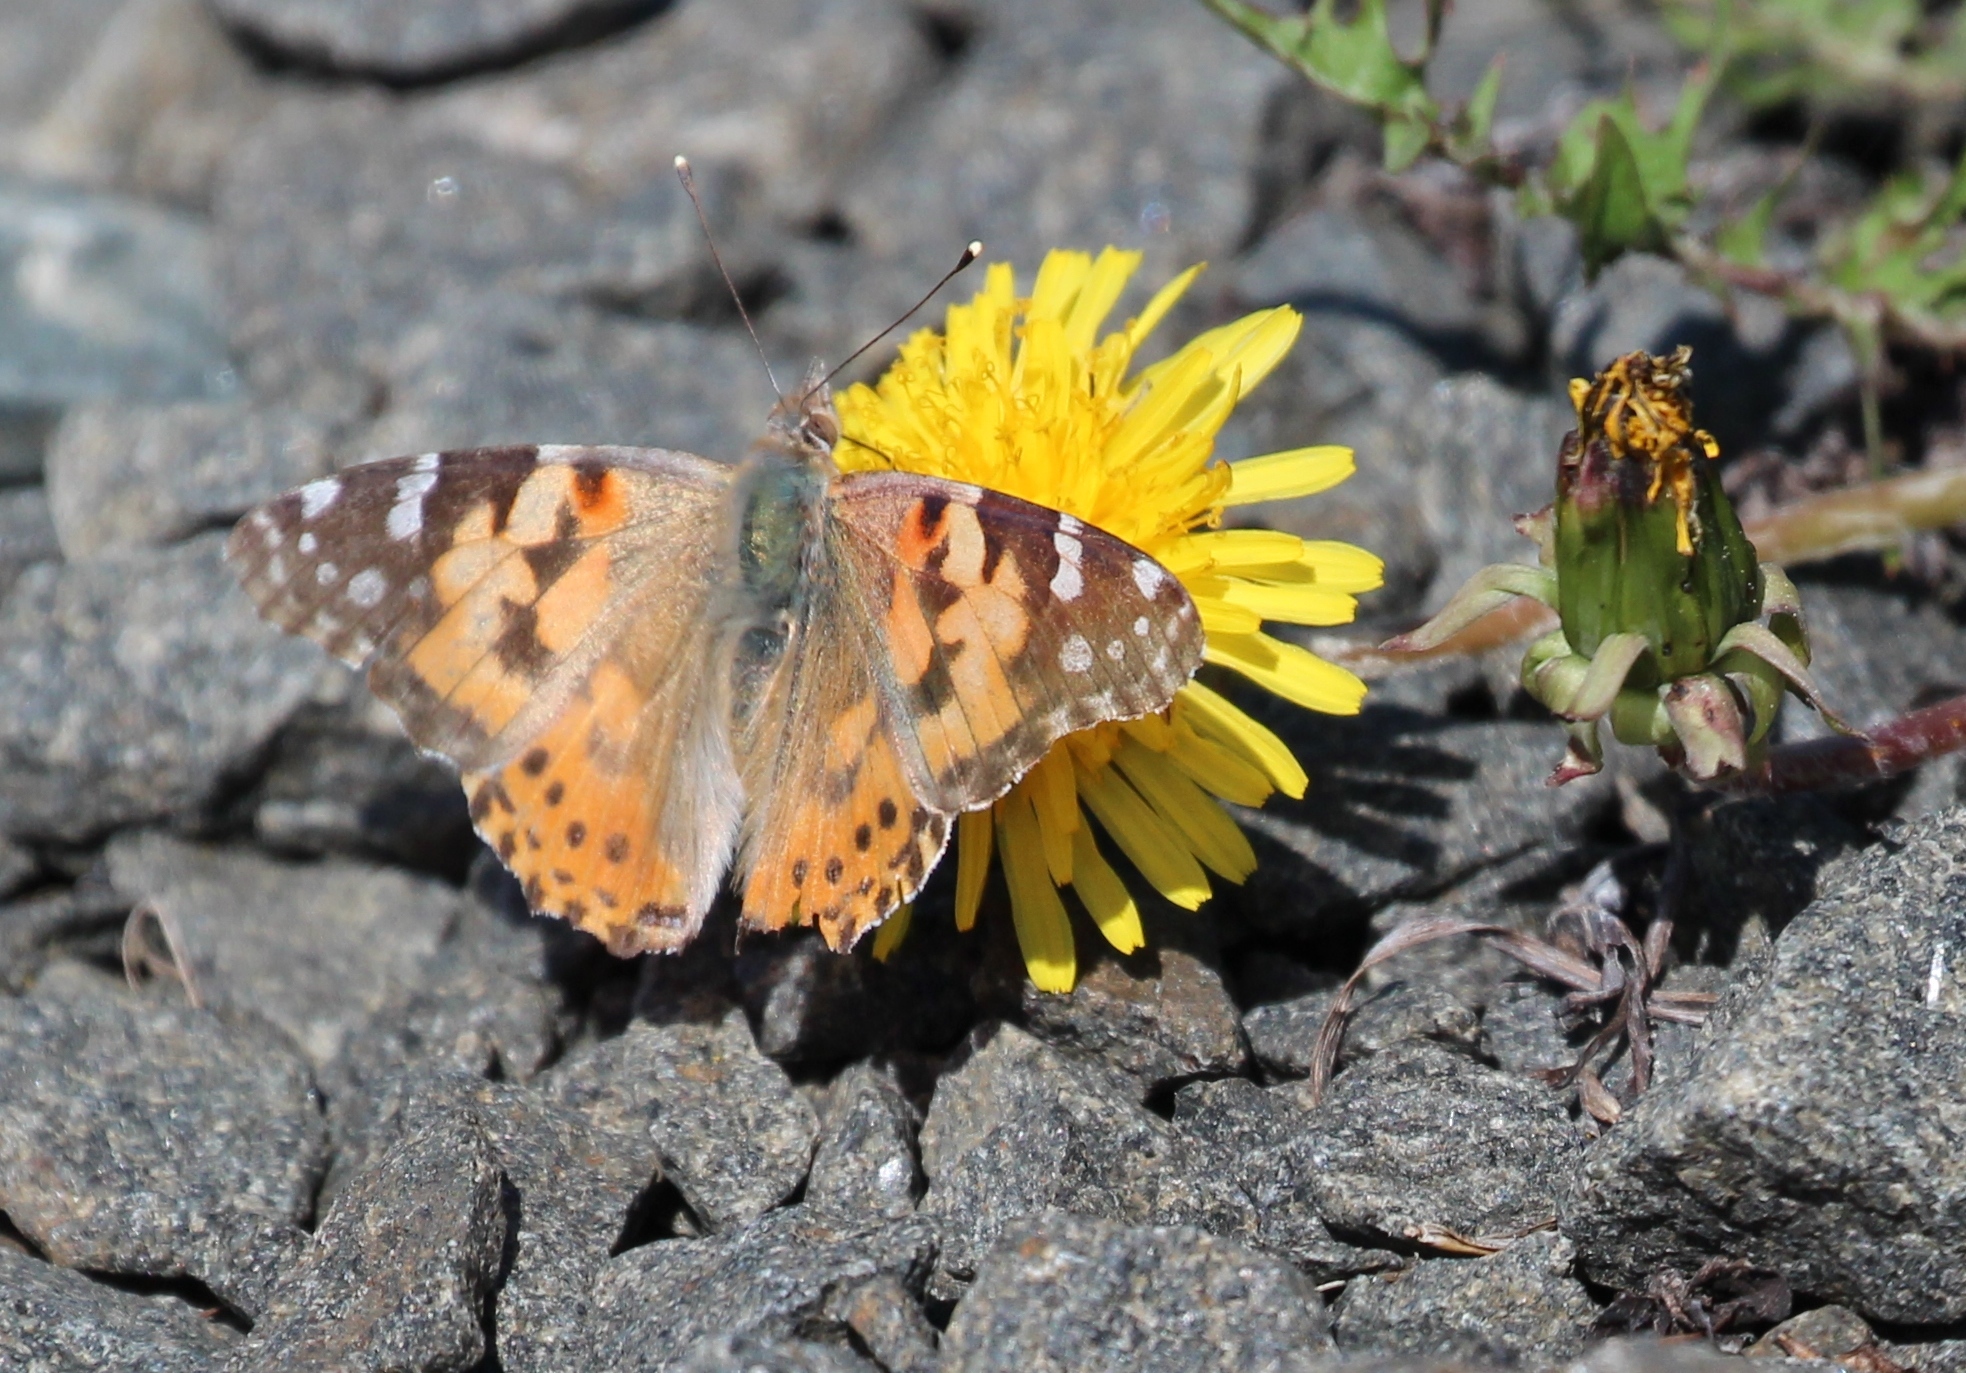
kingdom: Animalia
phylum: Arthropoda
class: Insecta
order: Lepidoptera
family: Nymphalidae
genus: Vanessa
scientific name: Vanessa cardui
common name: Painted lady
